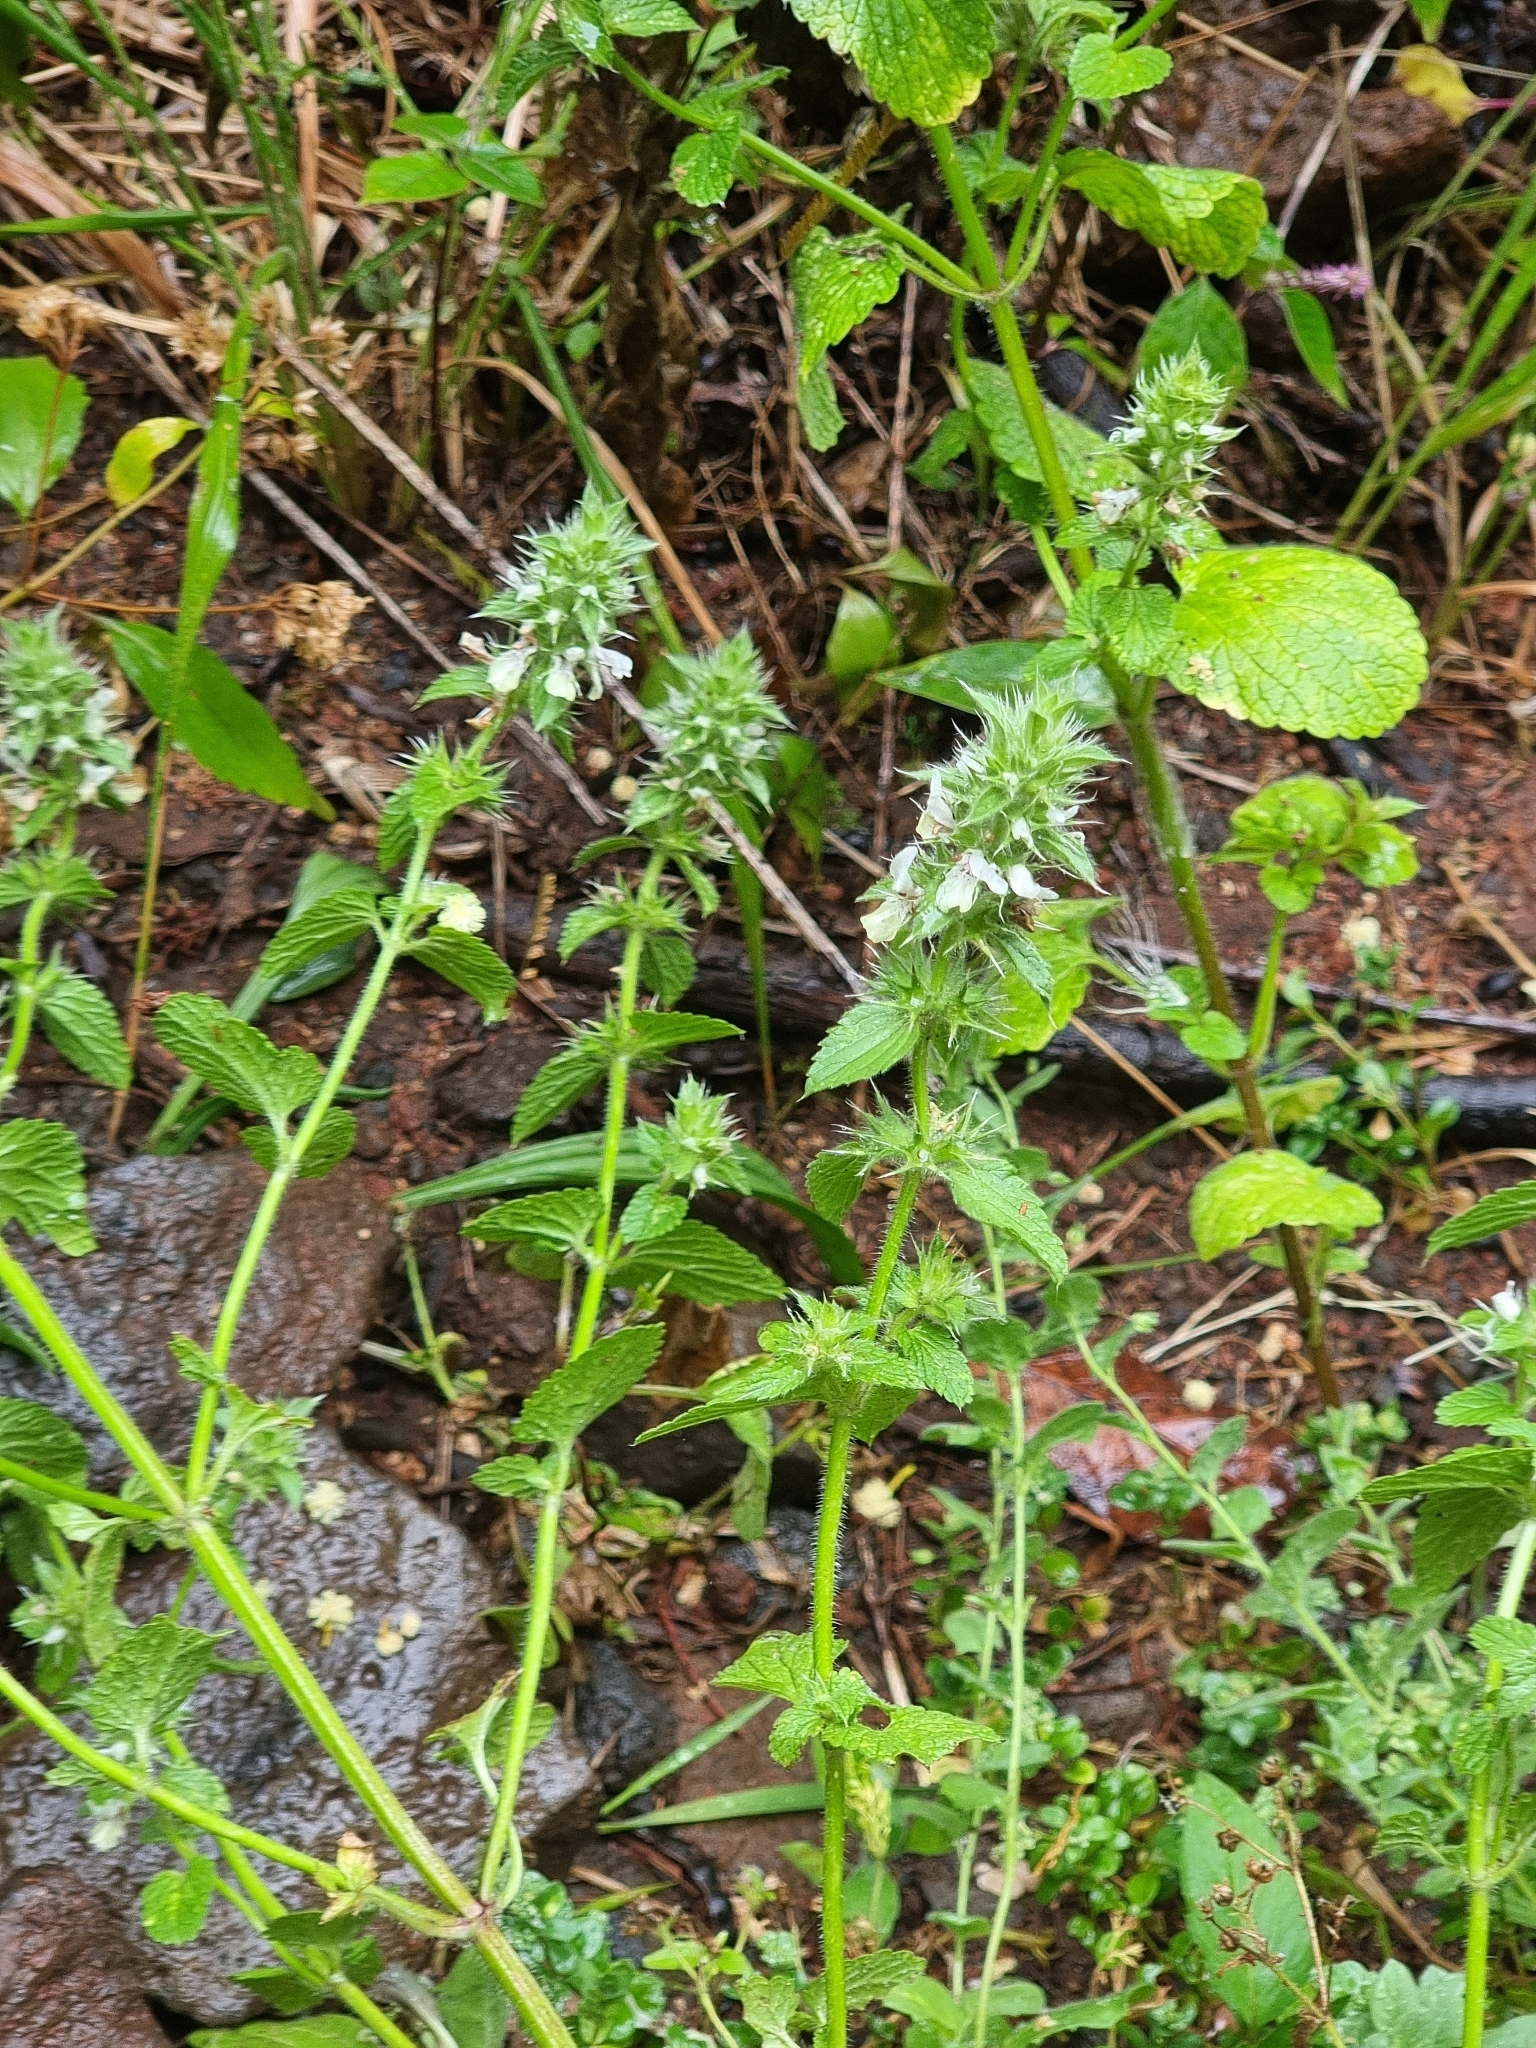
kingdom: Plantae
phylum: Tracheophyta
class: Magnoliopsida
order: Lamiales
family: Lamiaceae
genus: Stachys
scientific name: Stachys ocymastrum
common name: Italian hedgenettle
